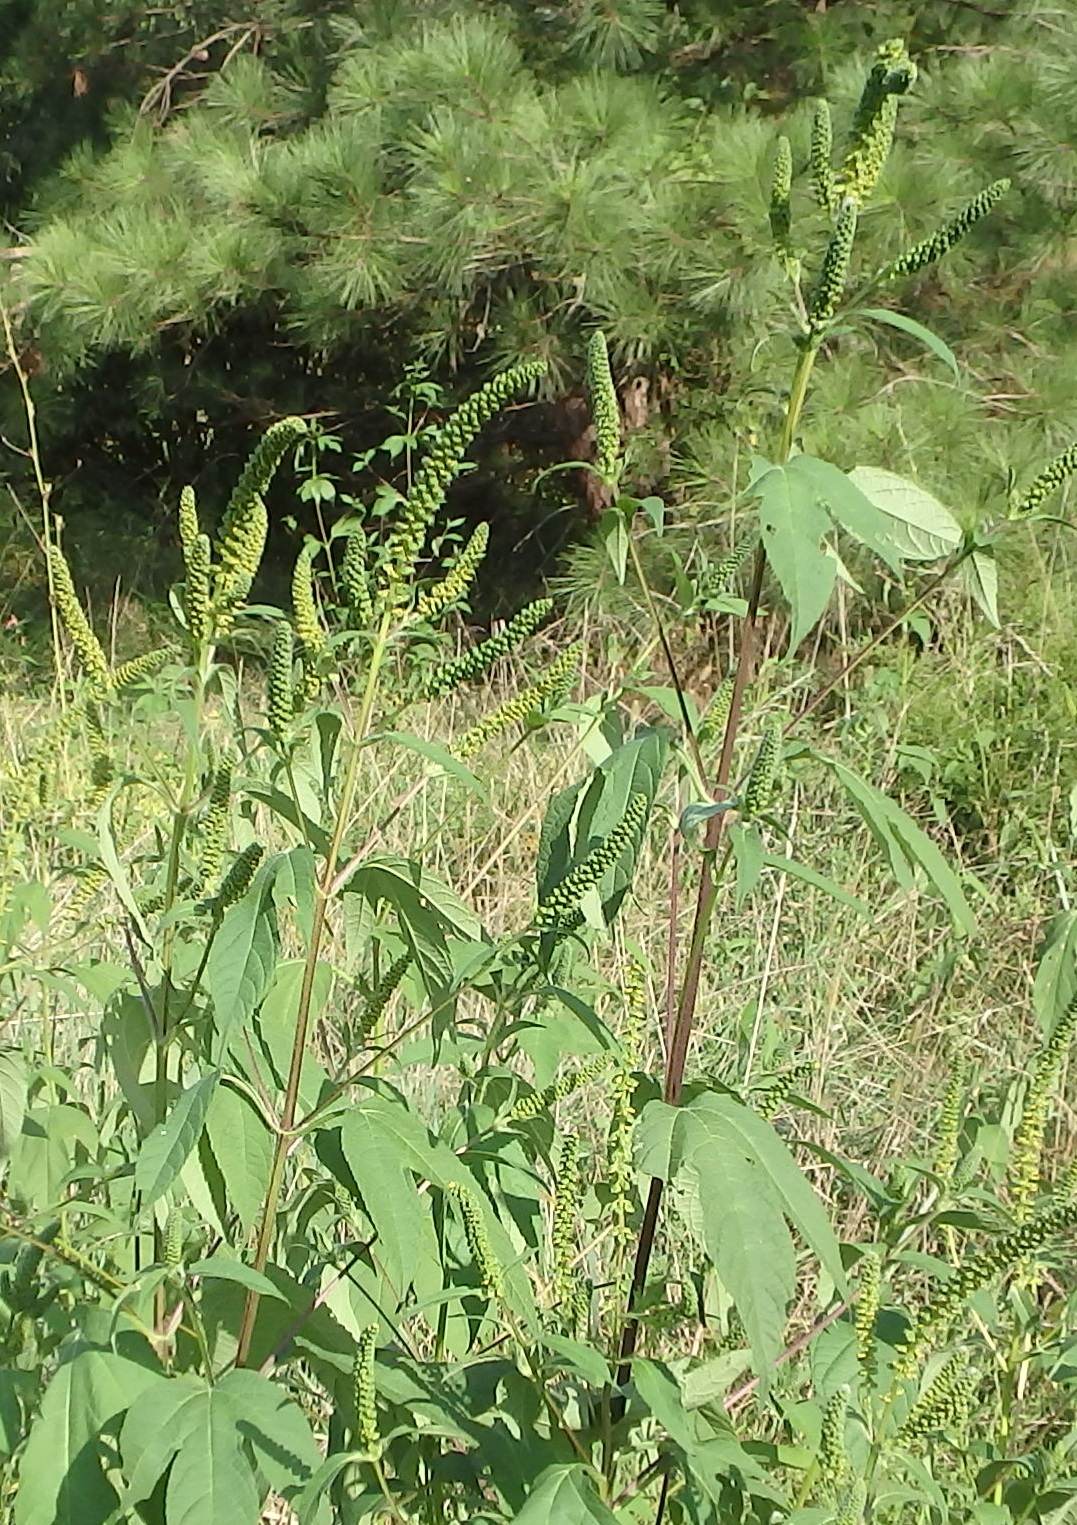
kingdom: Plantae
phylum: Tracheophyta
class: Magnoliopsida
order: Asterales
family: Asteraceae
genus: Ambrosia
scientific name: Ambrosia trifida
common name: Giant ragweed
